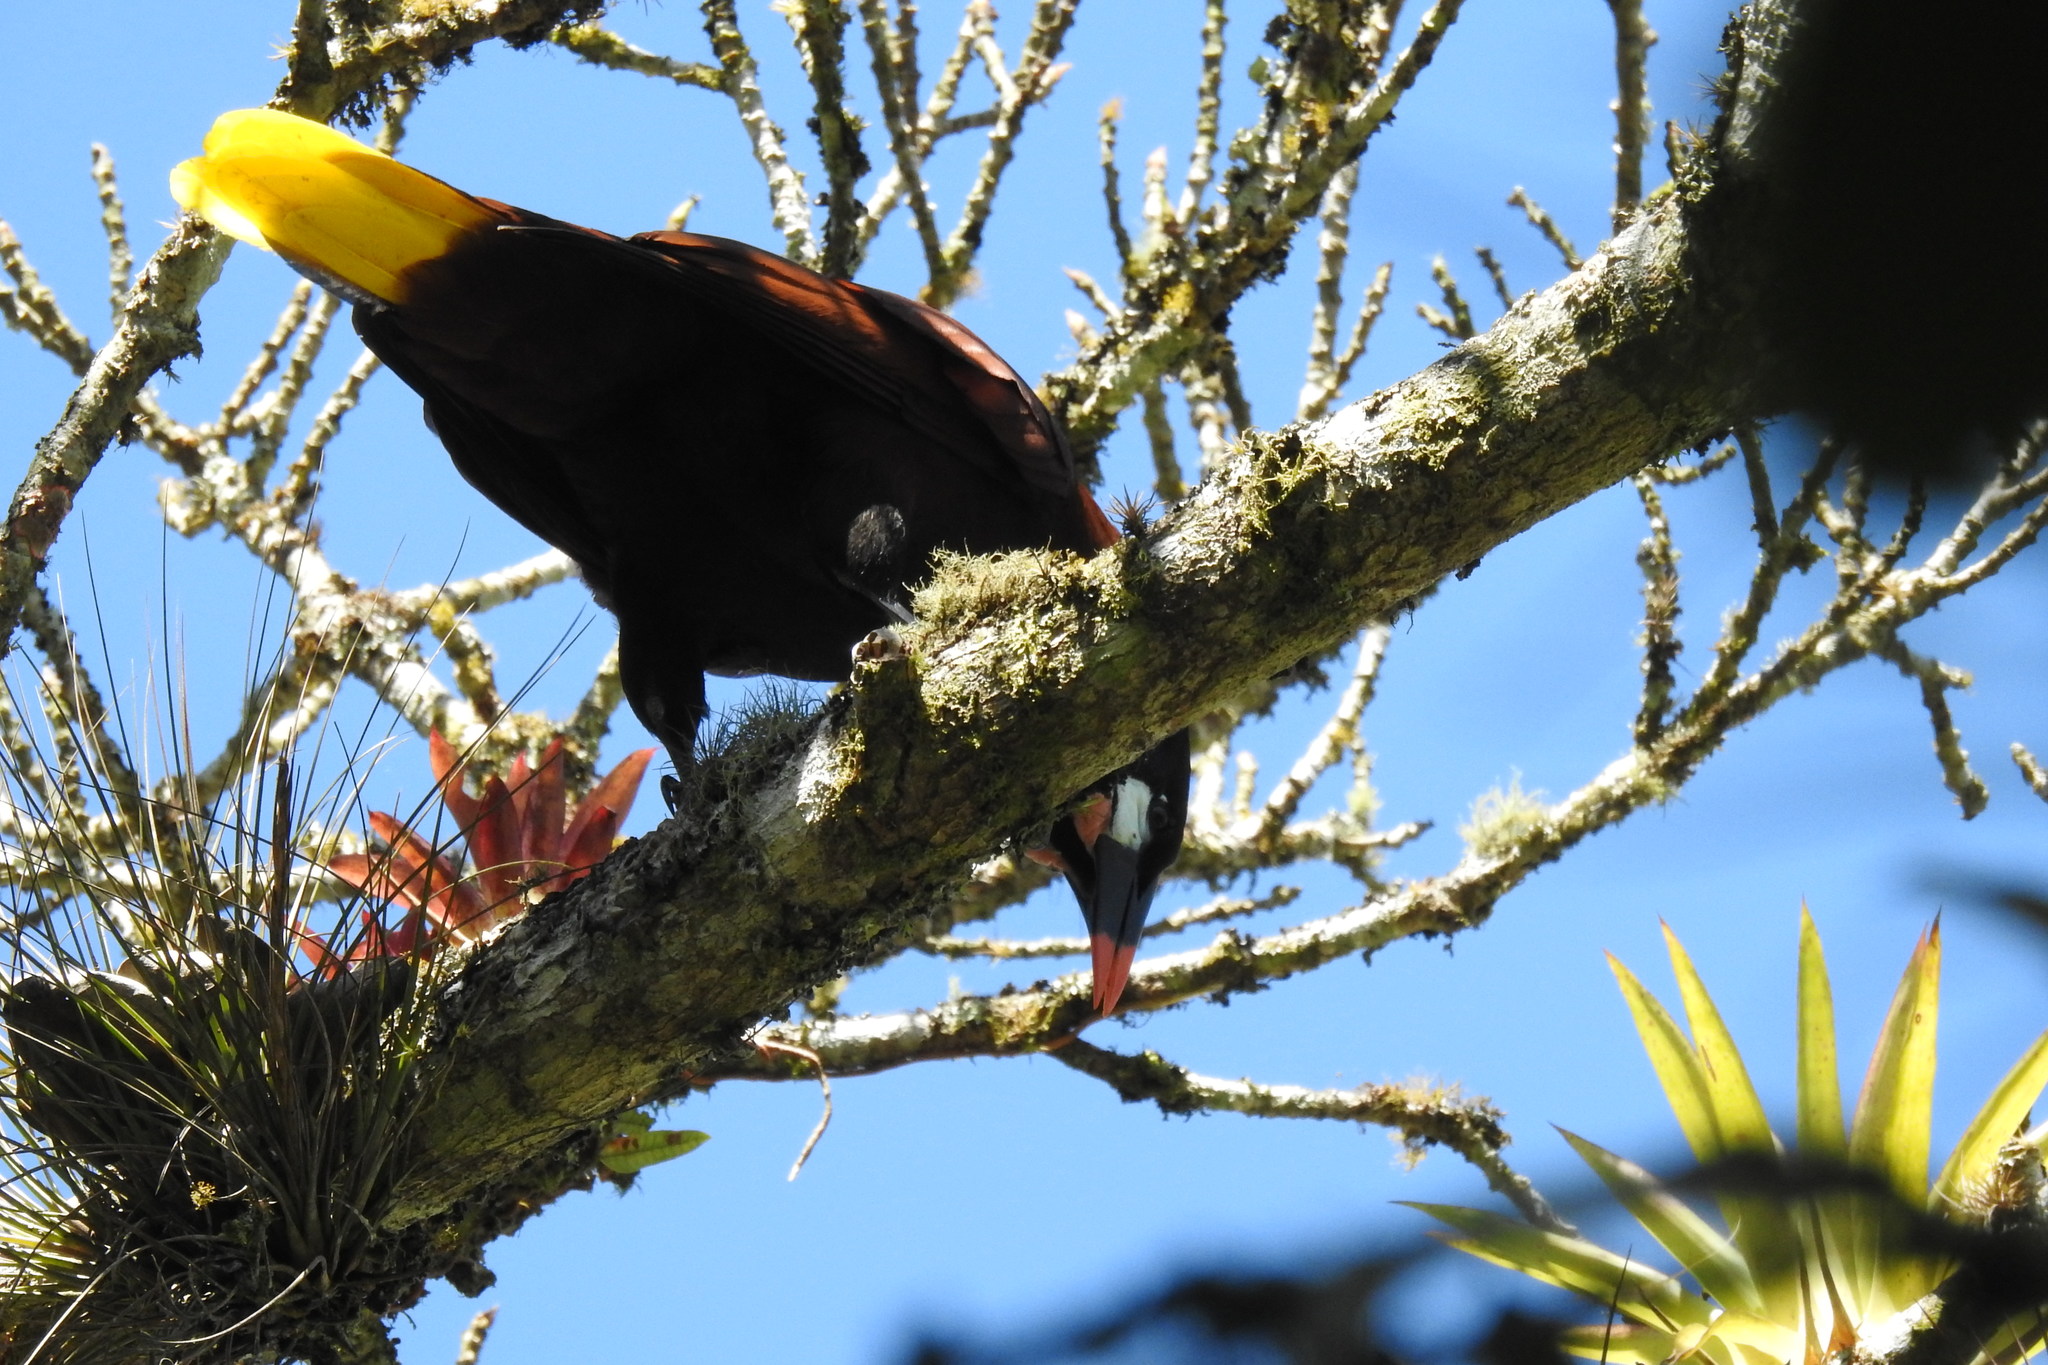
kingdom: Animalia
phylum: Chordata
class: Aves
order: Passeriformes
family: Icteridae
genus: Psarocolius
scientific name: Psarocolius montezuma
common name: Montezuma oropendola
